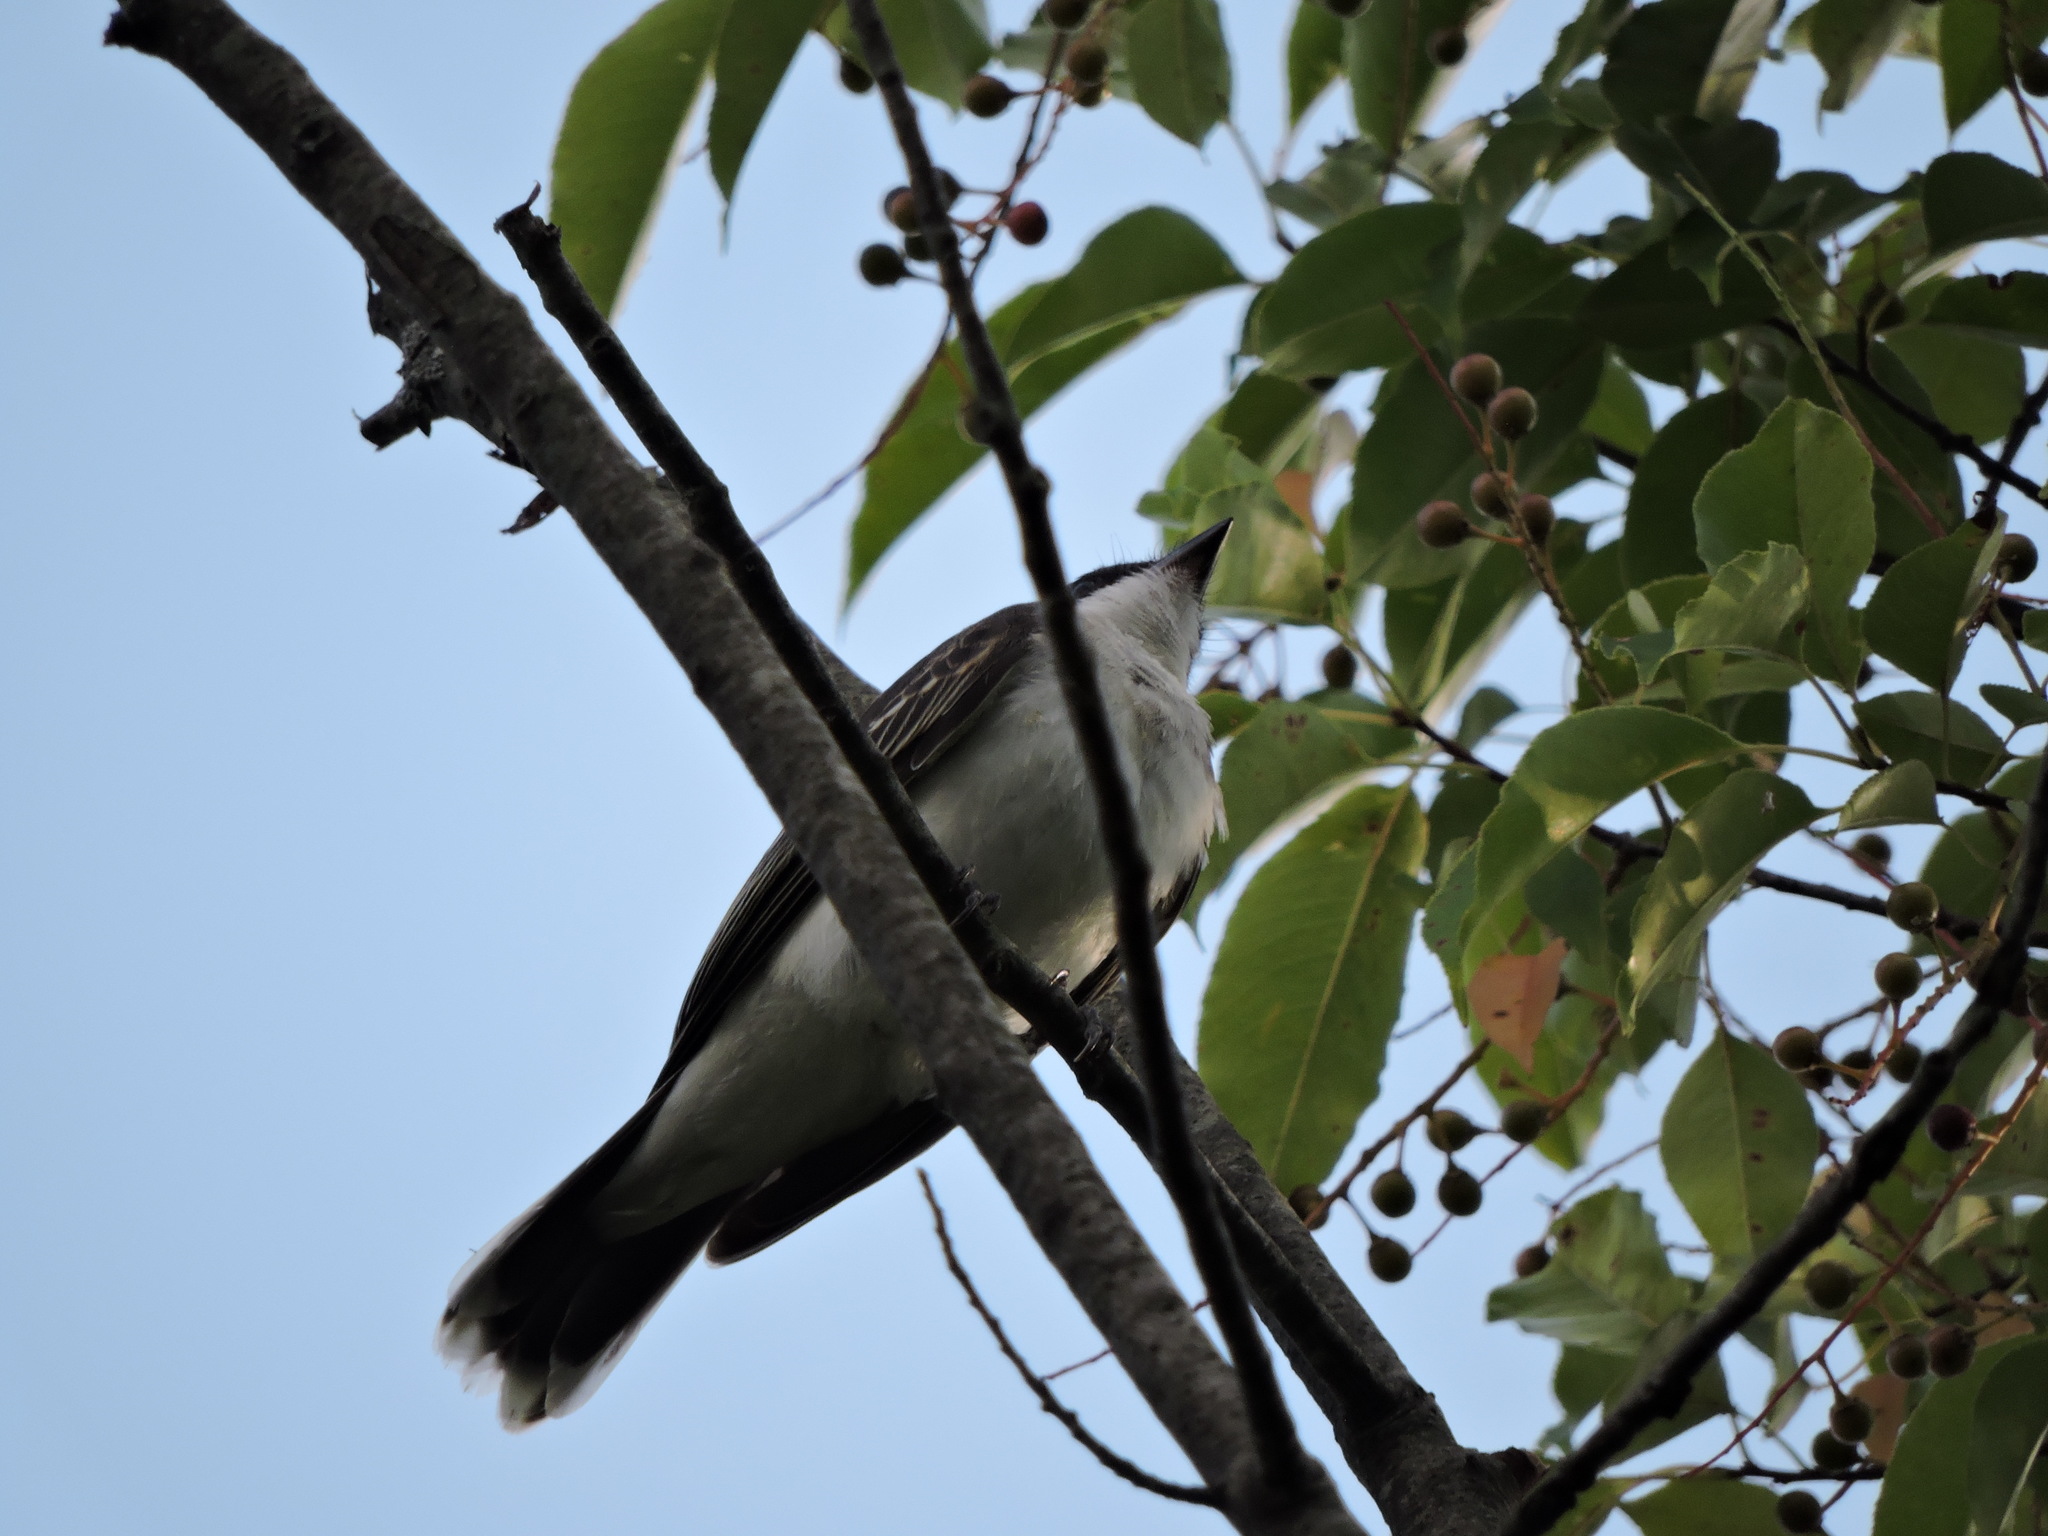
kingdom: Animalia
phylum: Chordata
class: Aves
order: Passeriformes
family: Tyrannidae
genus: Tyrannus
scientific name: Tyrannus tyrannus
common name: Eastern kingbird
